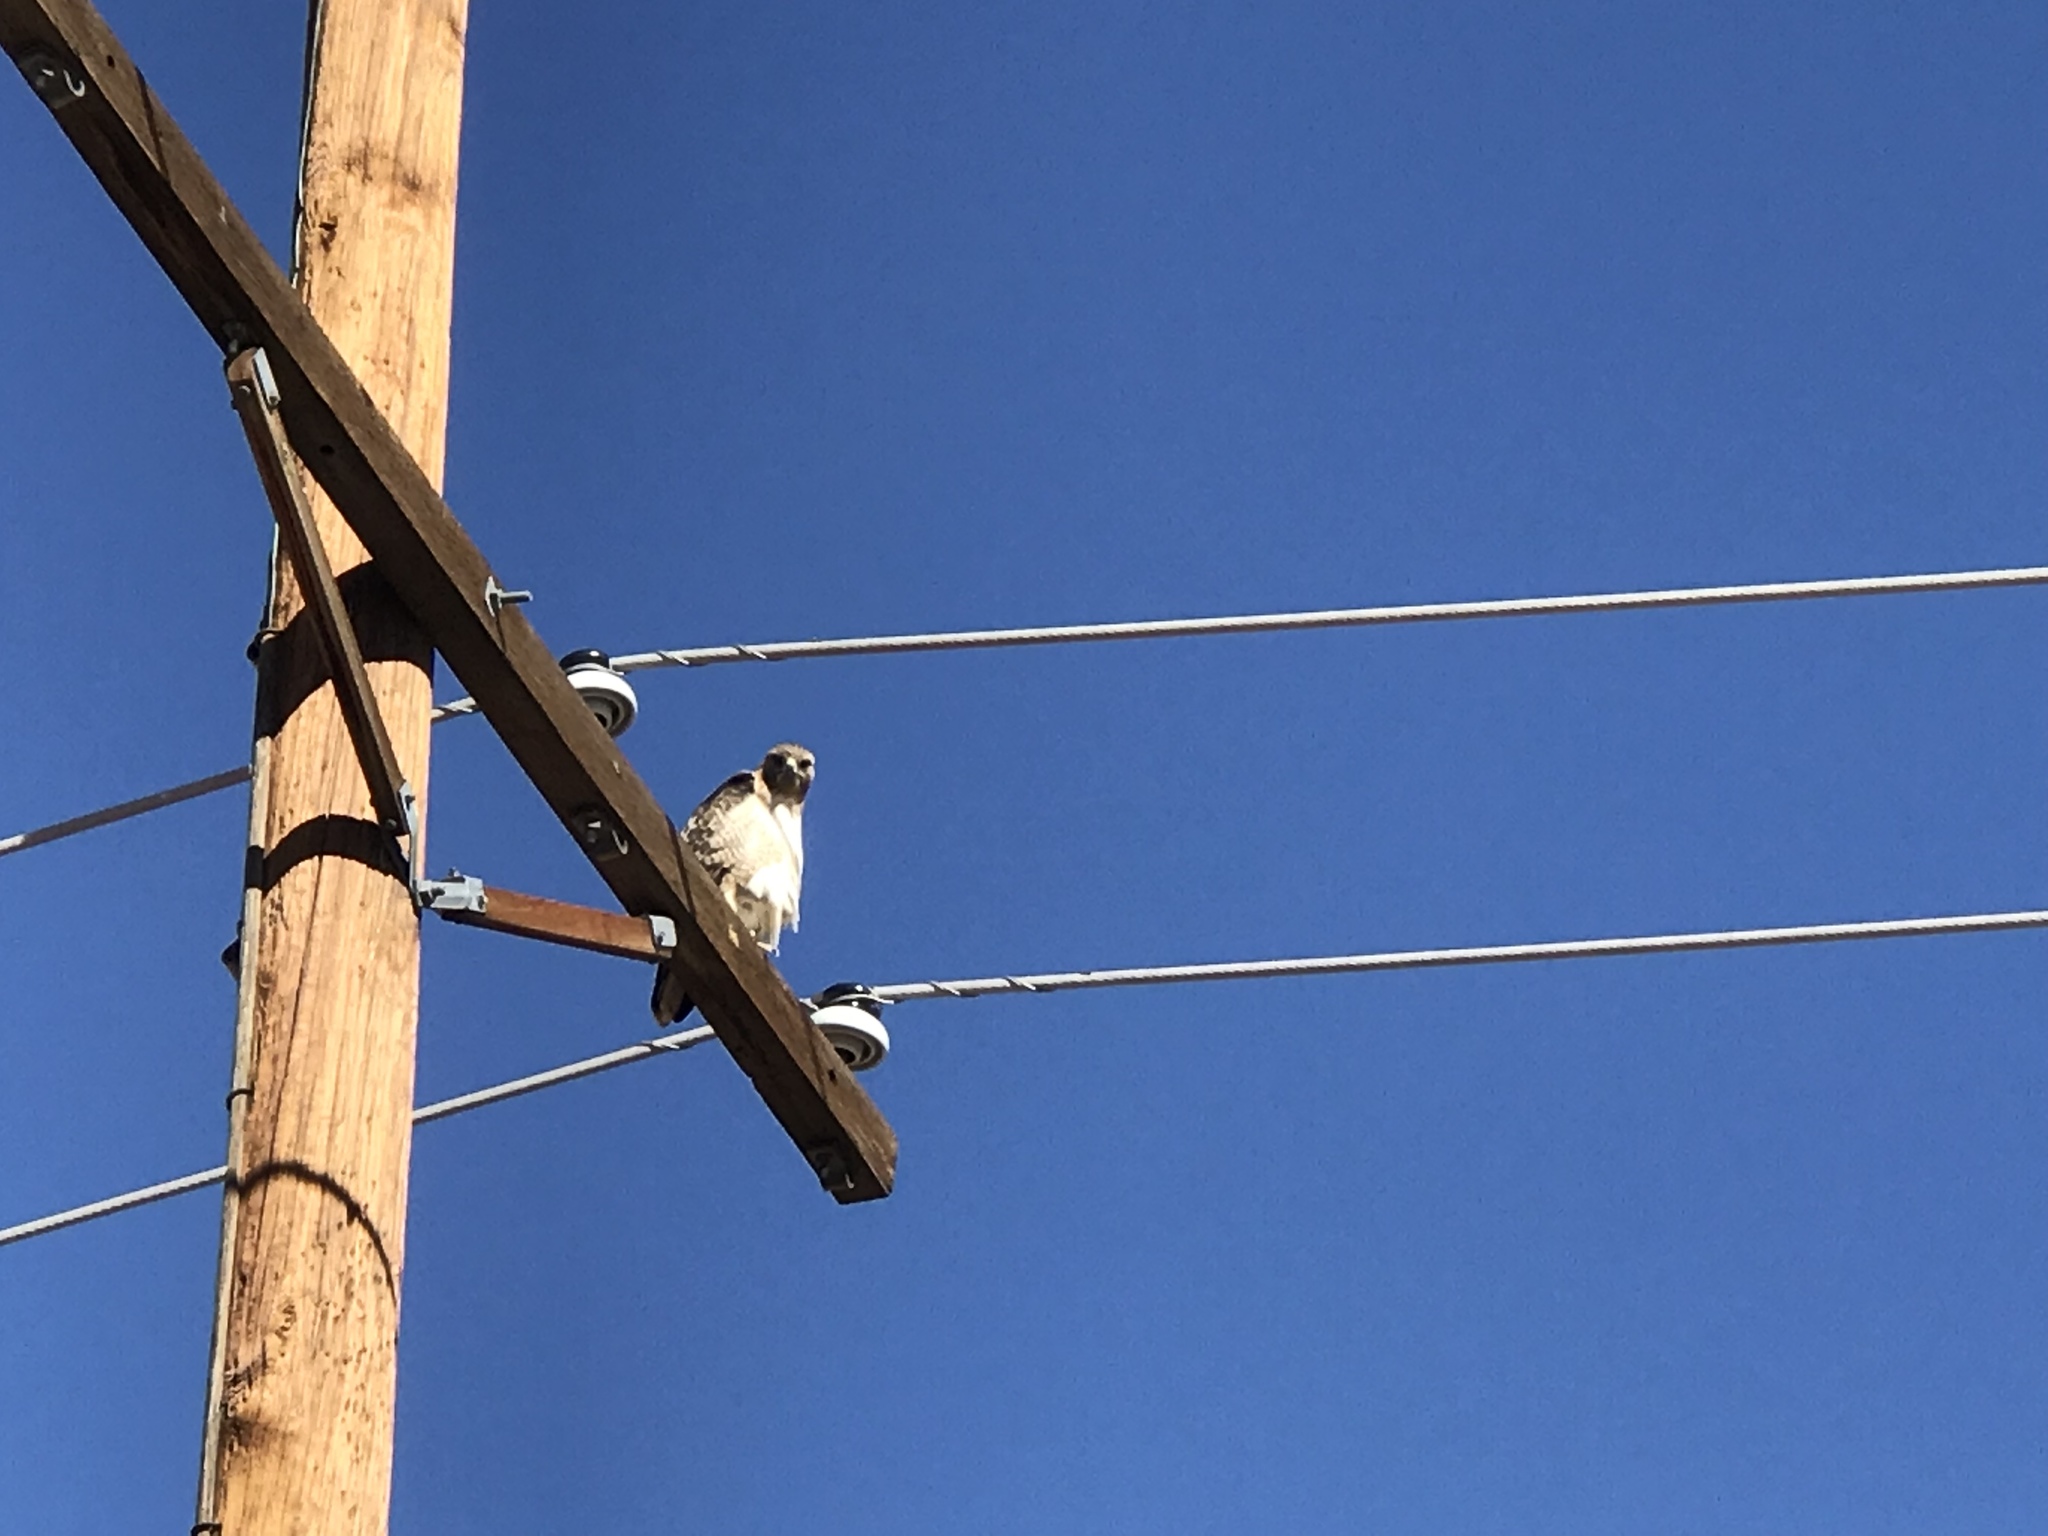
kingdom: Animalia
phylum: Chordata
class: Aves
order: Accipitriformes
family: Accipitridae
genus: Buteo
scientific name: Buteo jamaicensis
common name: Red-tailed hawk
